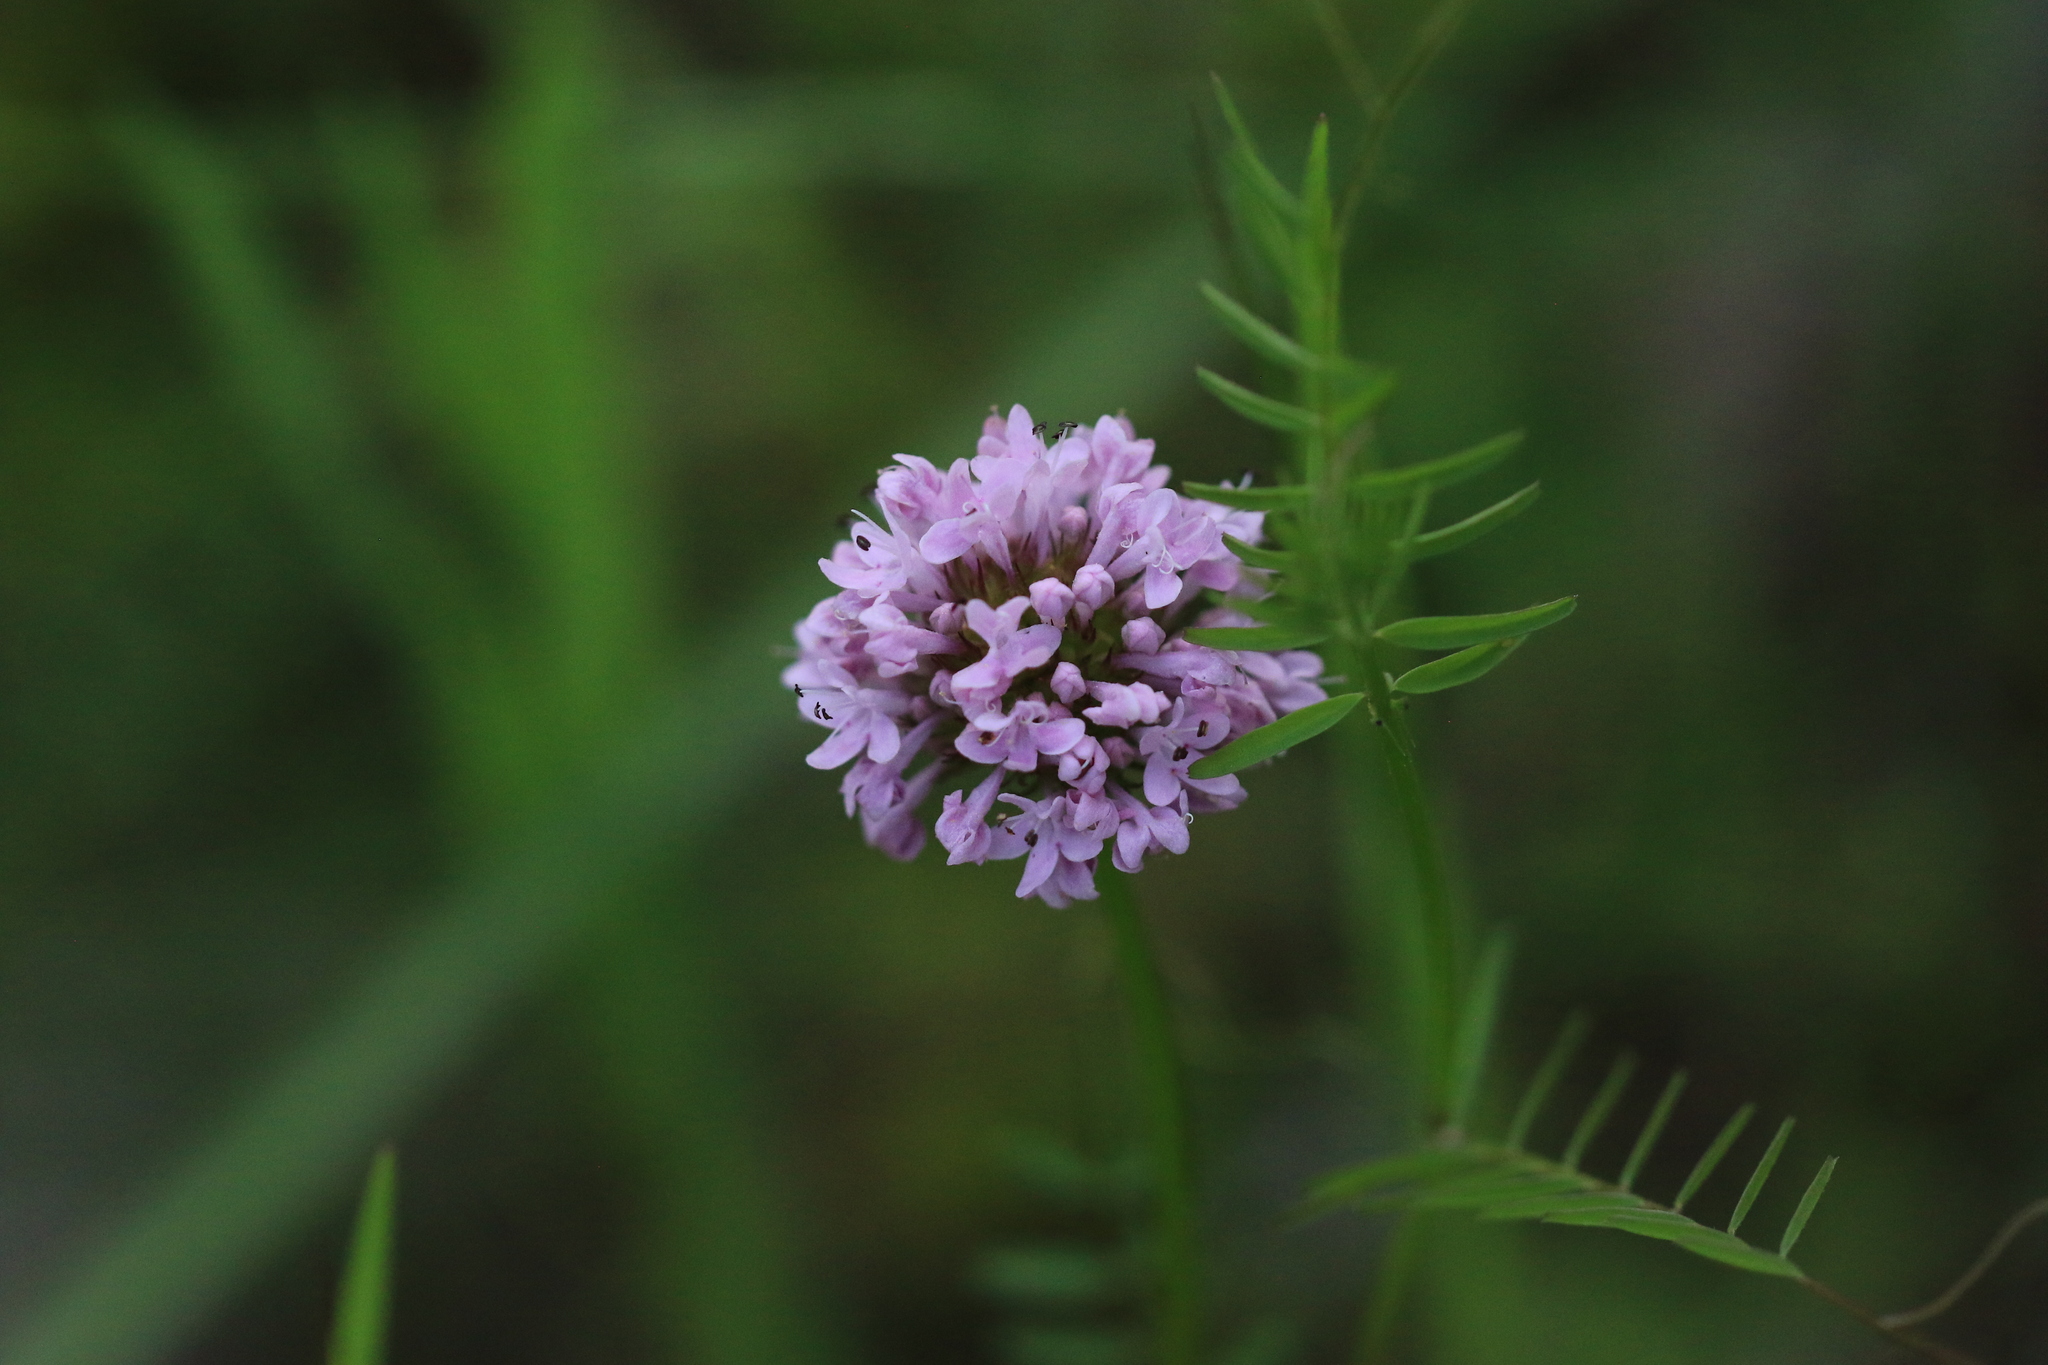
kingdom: Plantae
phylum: Tracheophyta
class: Magnoliopsida
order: Dipsacales
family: Caprifoliaceae
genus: Plectritis
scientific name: Plectritis congesta
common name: Pink plectritis
